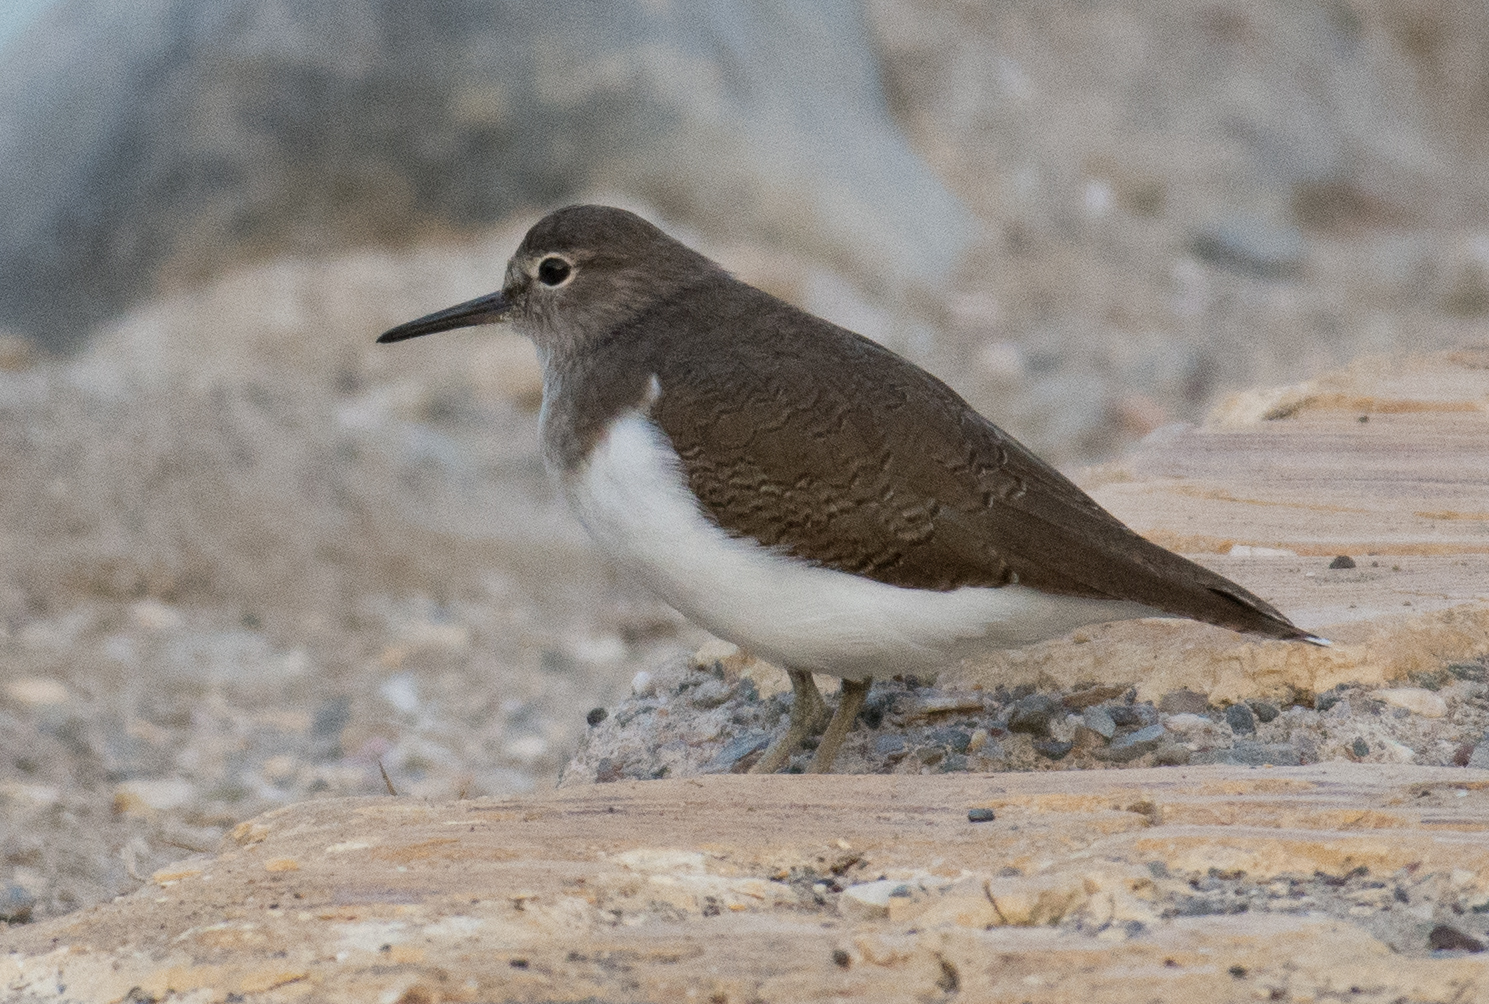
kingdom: Animalia
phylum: Chordata
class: Aves
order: Charadriiformes
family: Scolopacidae
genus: Actitis
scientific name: Actitis hypoleucos
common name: Common sandpiper
